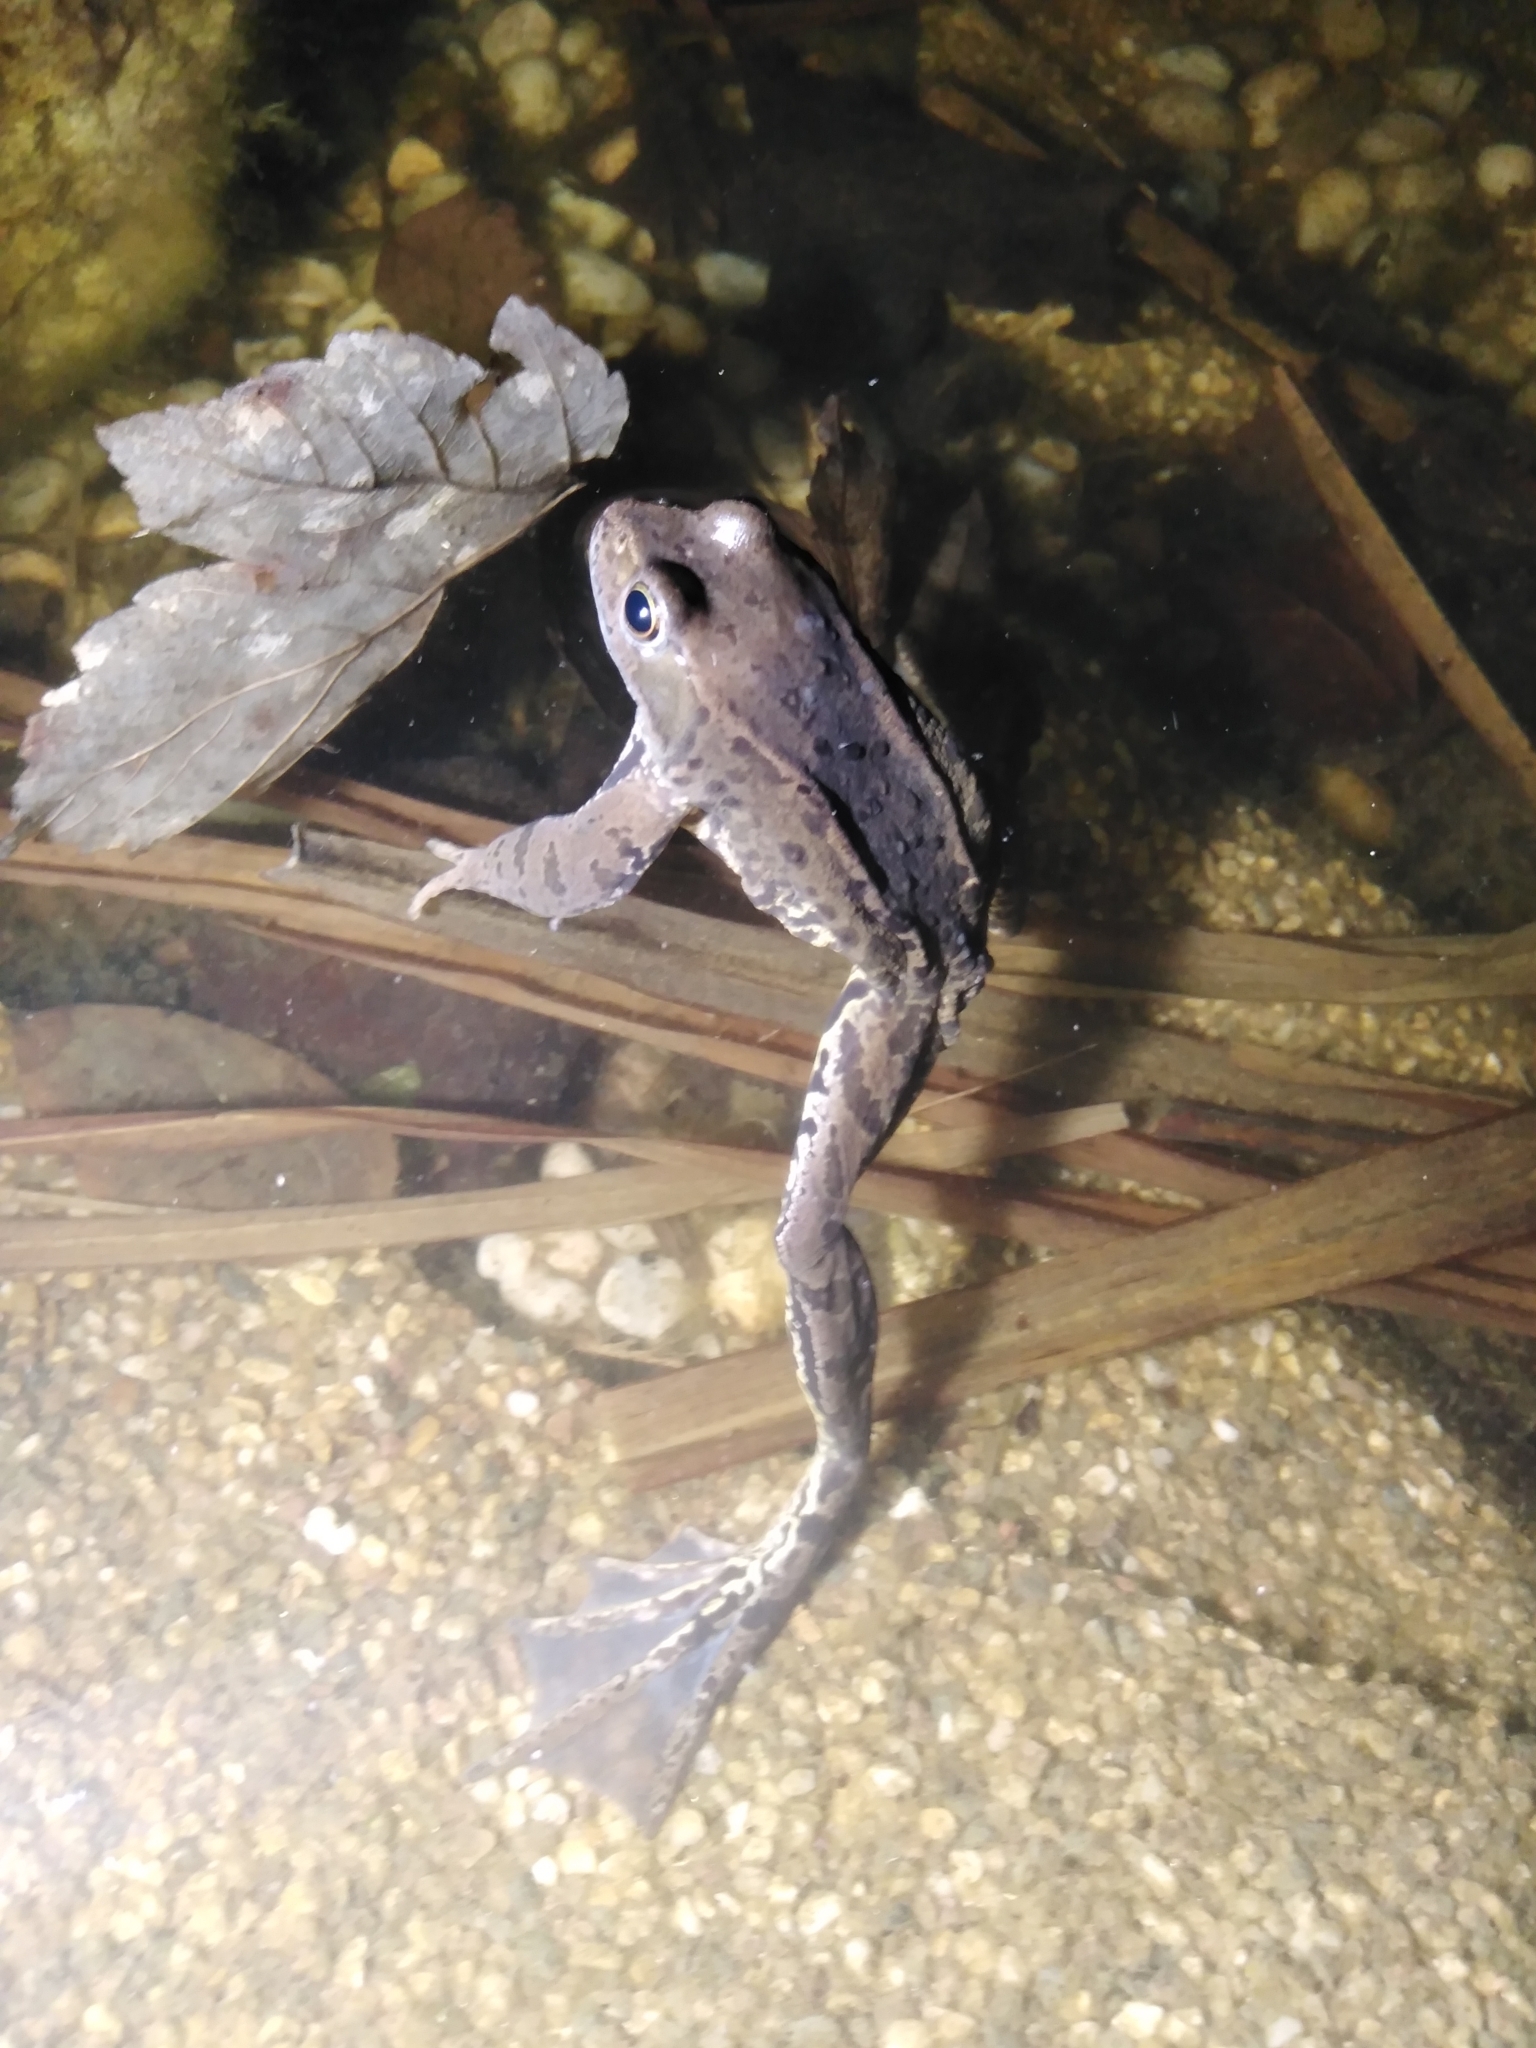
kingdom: Animalia
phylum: Chordata
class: Amphibia
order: Anura
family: Ranidae
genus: Rana
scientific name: Rana temporaria
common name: Common frog
